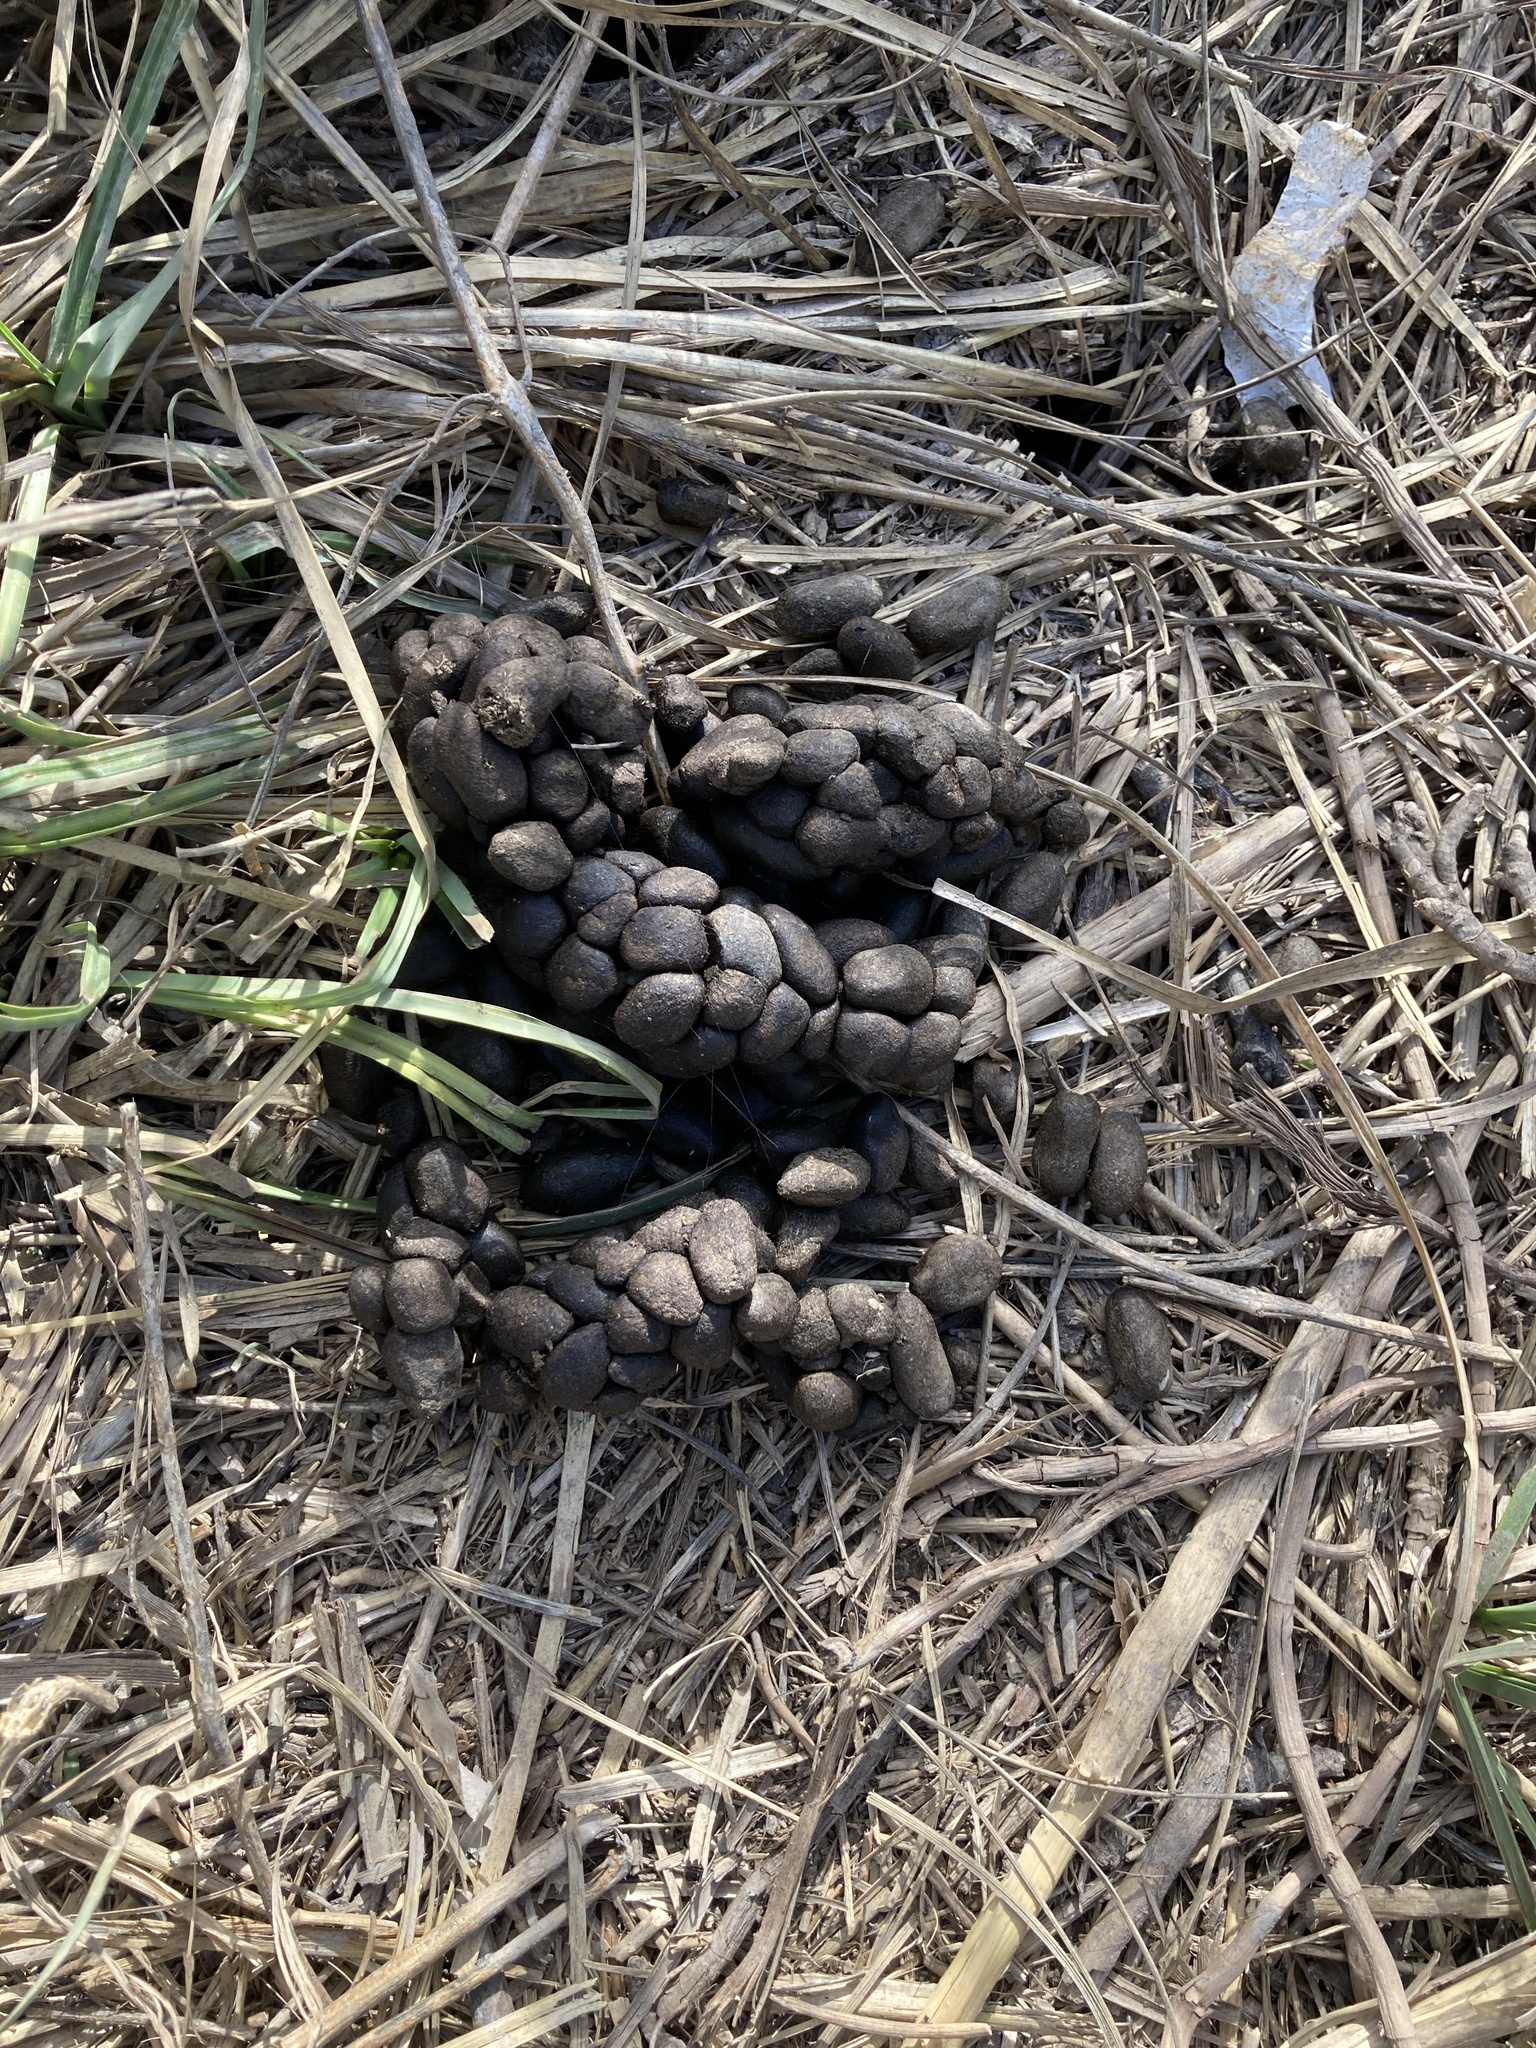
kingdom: Animalia
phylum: Chordata
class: Mammalia
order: Rodentia
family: Caviidae
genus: Hydrochoerus
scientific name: Hydrochoerus hydrochaeris
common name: Capybara
